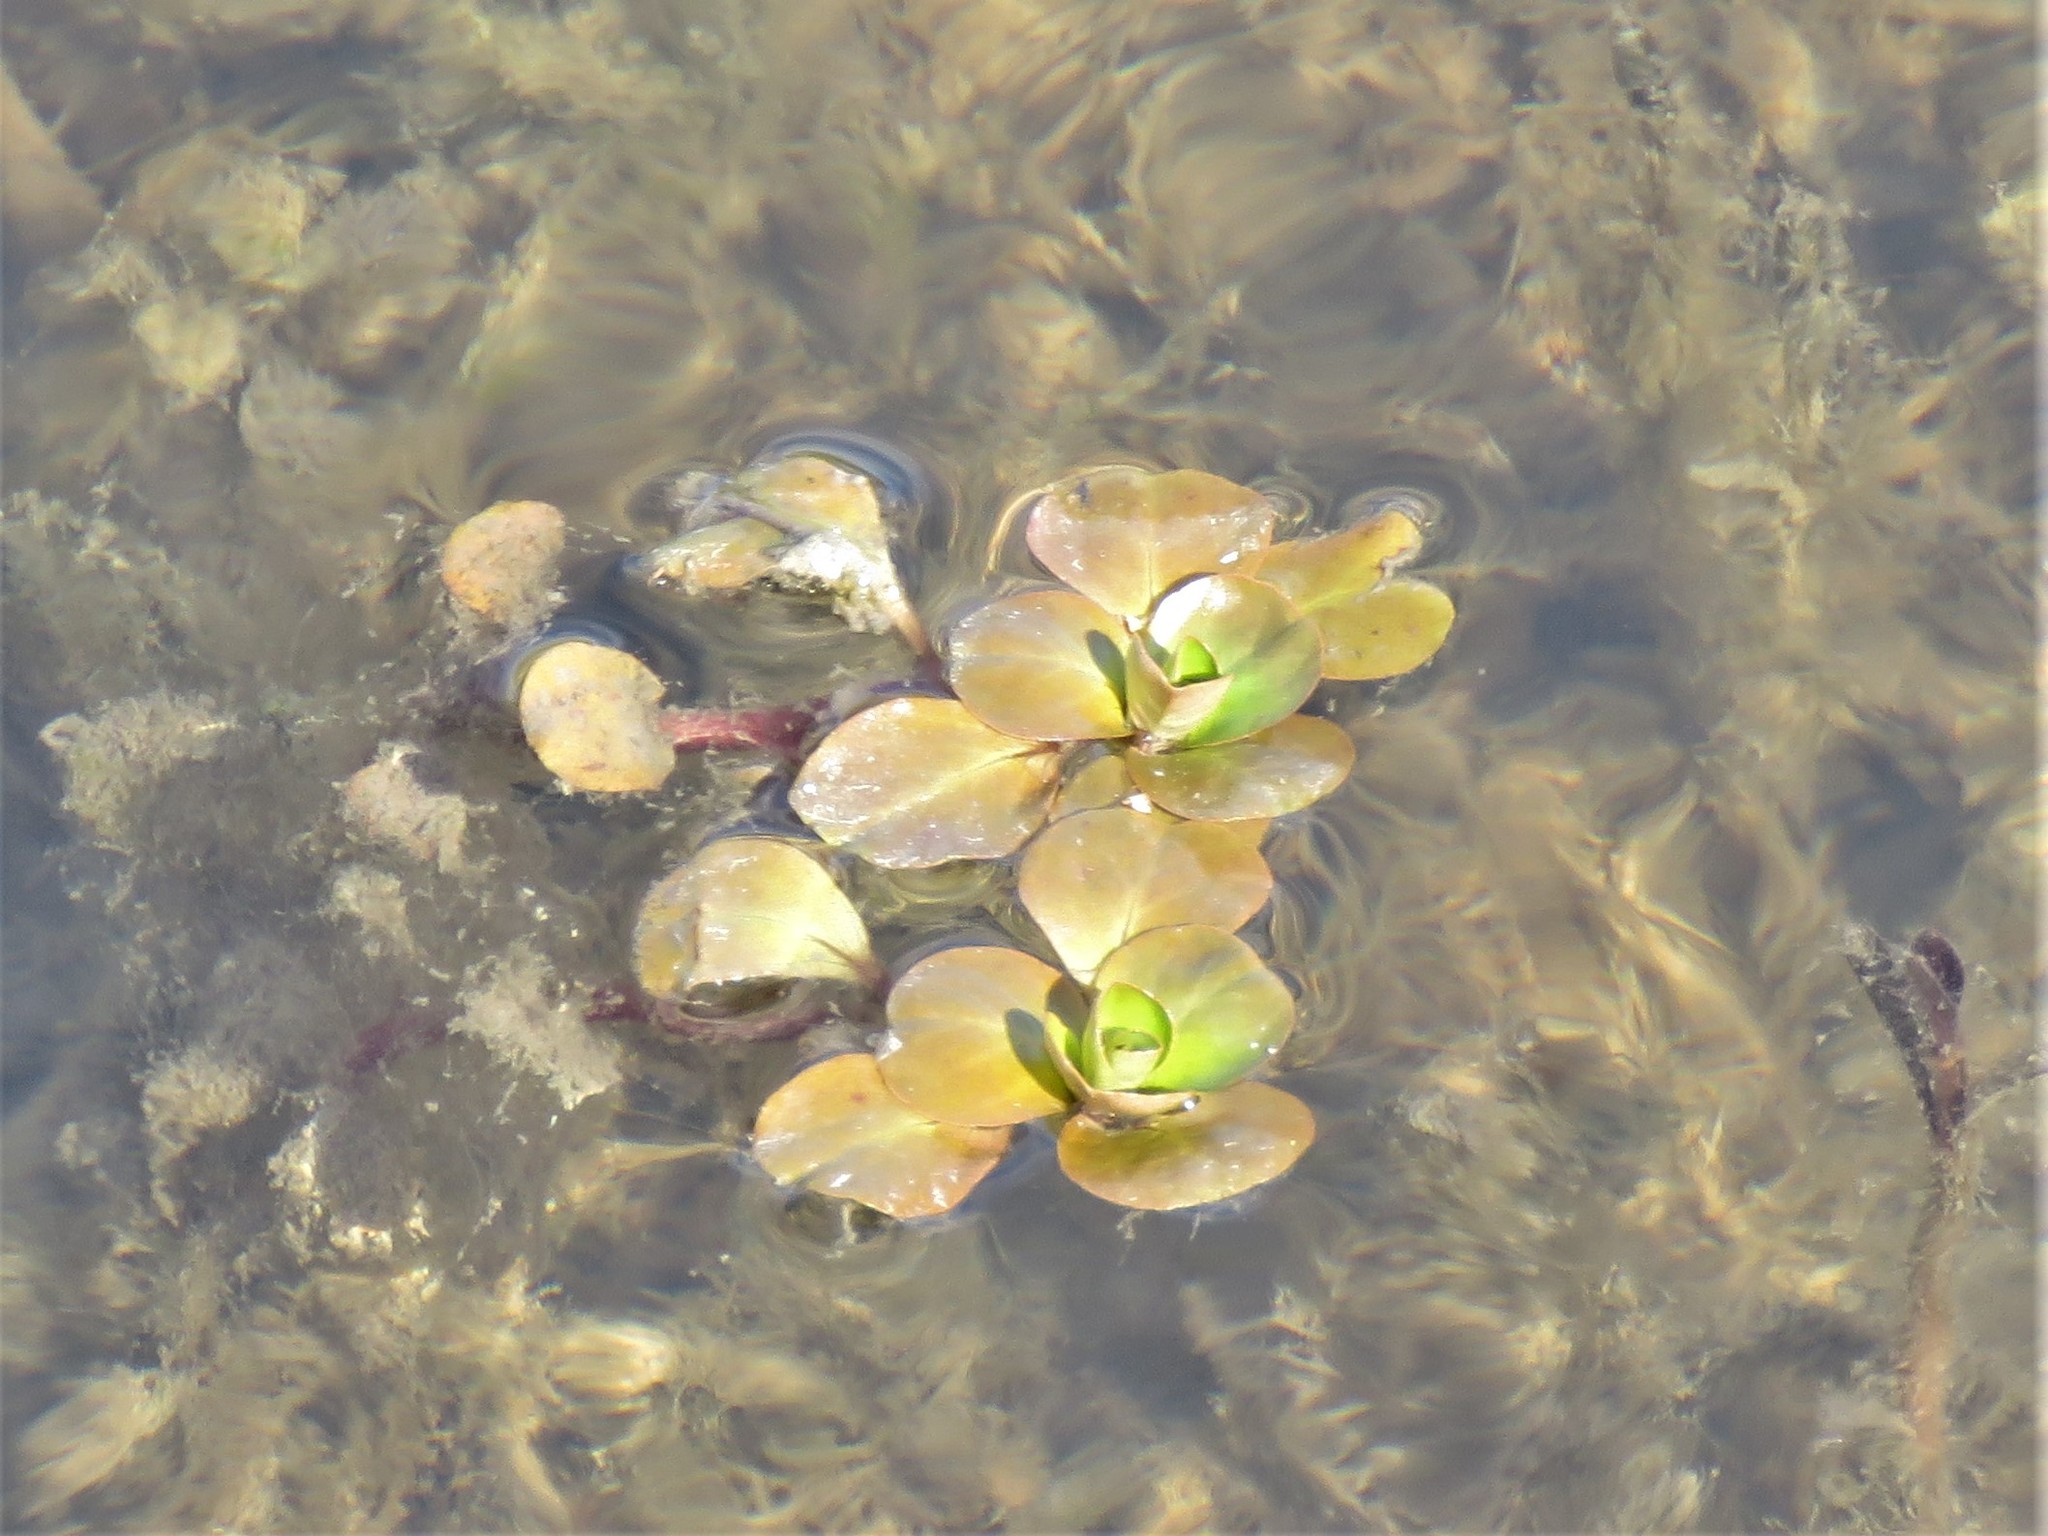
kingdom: Plantae
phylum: Tracheophyta
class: Magnoliopsida
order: Myrtales
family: Onagraceae
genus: Ludwigia
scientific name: Ludwigia peploides
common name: Floating primrose-willow
